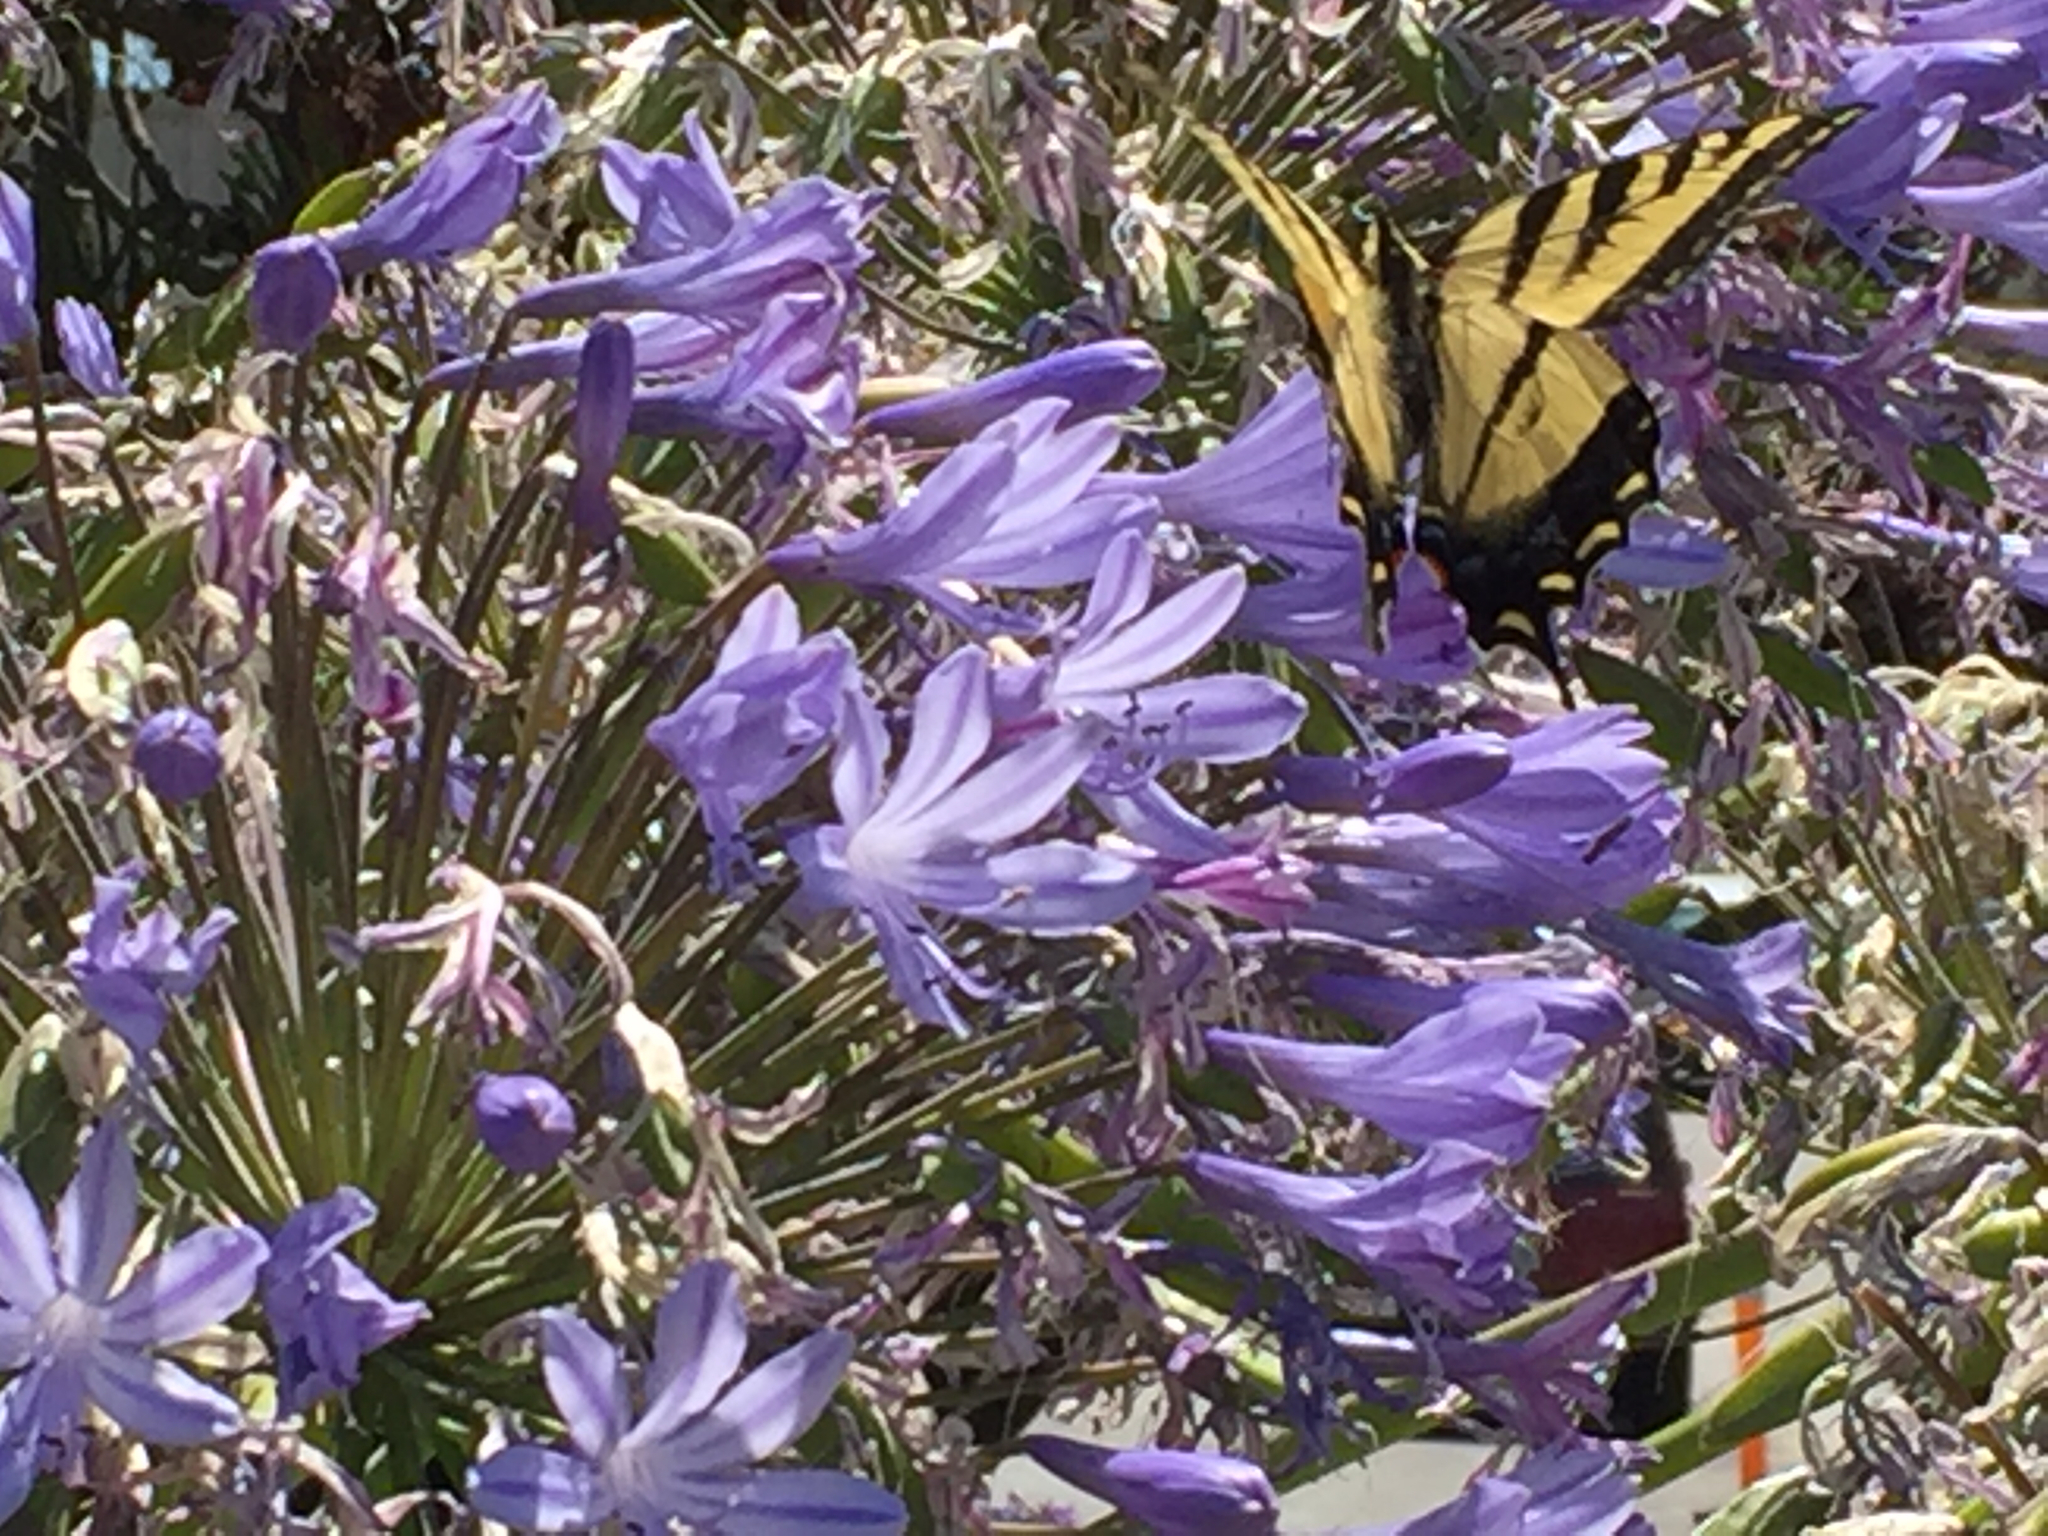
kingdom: Animalia
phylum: Arthropoda
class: Insecta
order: Lepidoptera
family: Papilionidae
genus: Papilio
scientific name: Papilio rutulus
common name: Western tiger swallowtail
